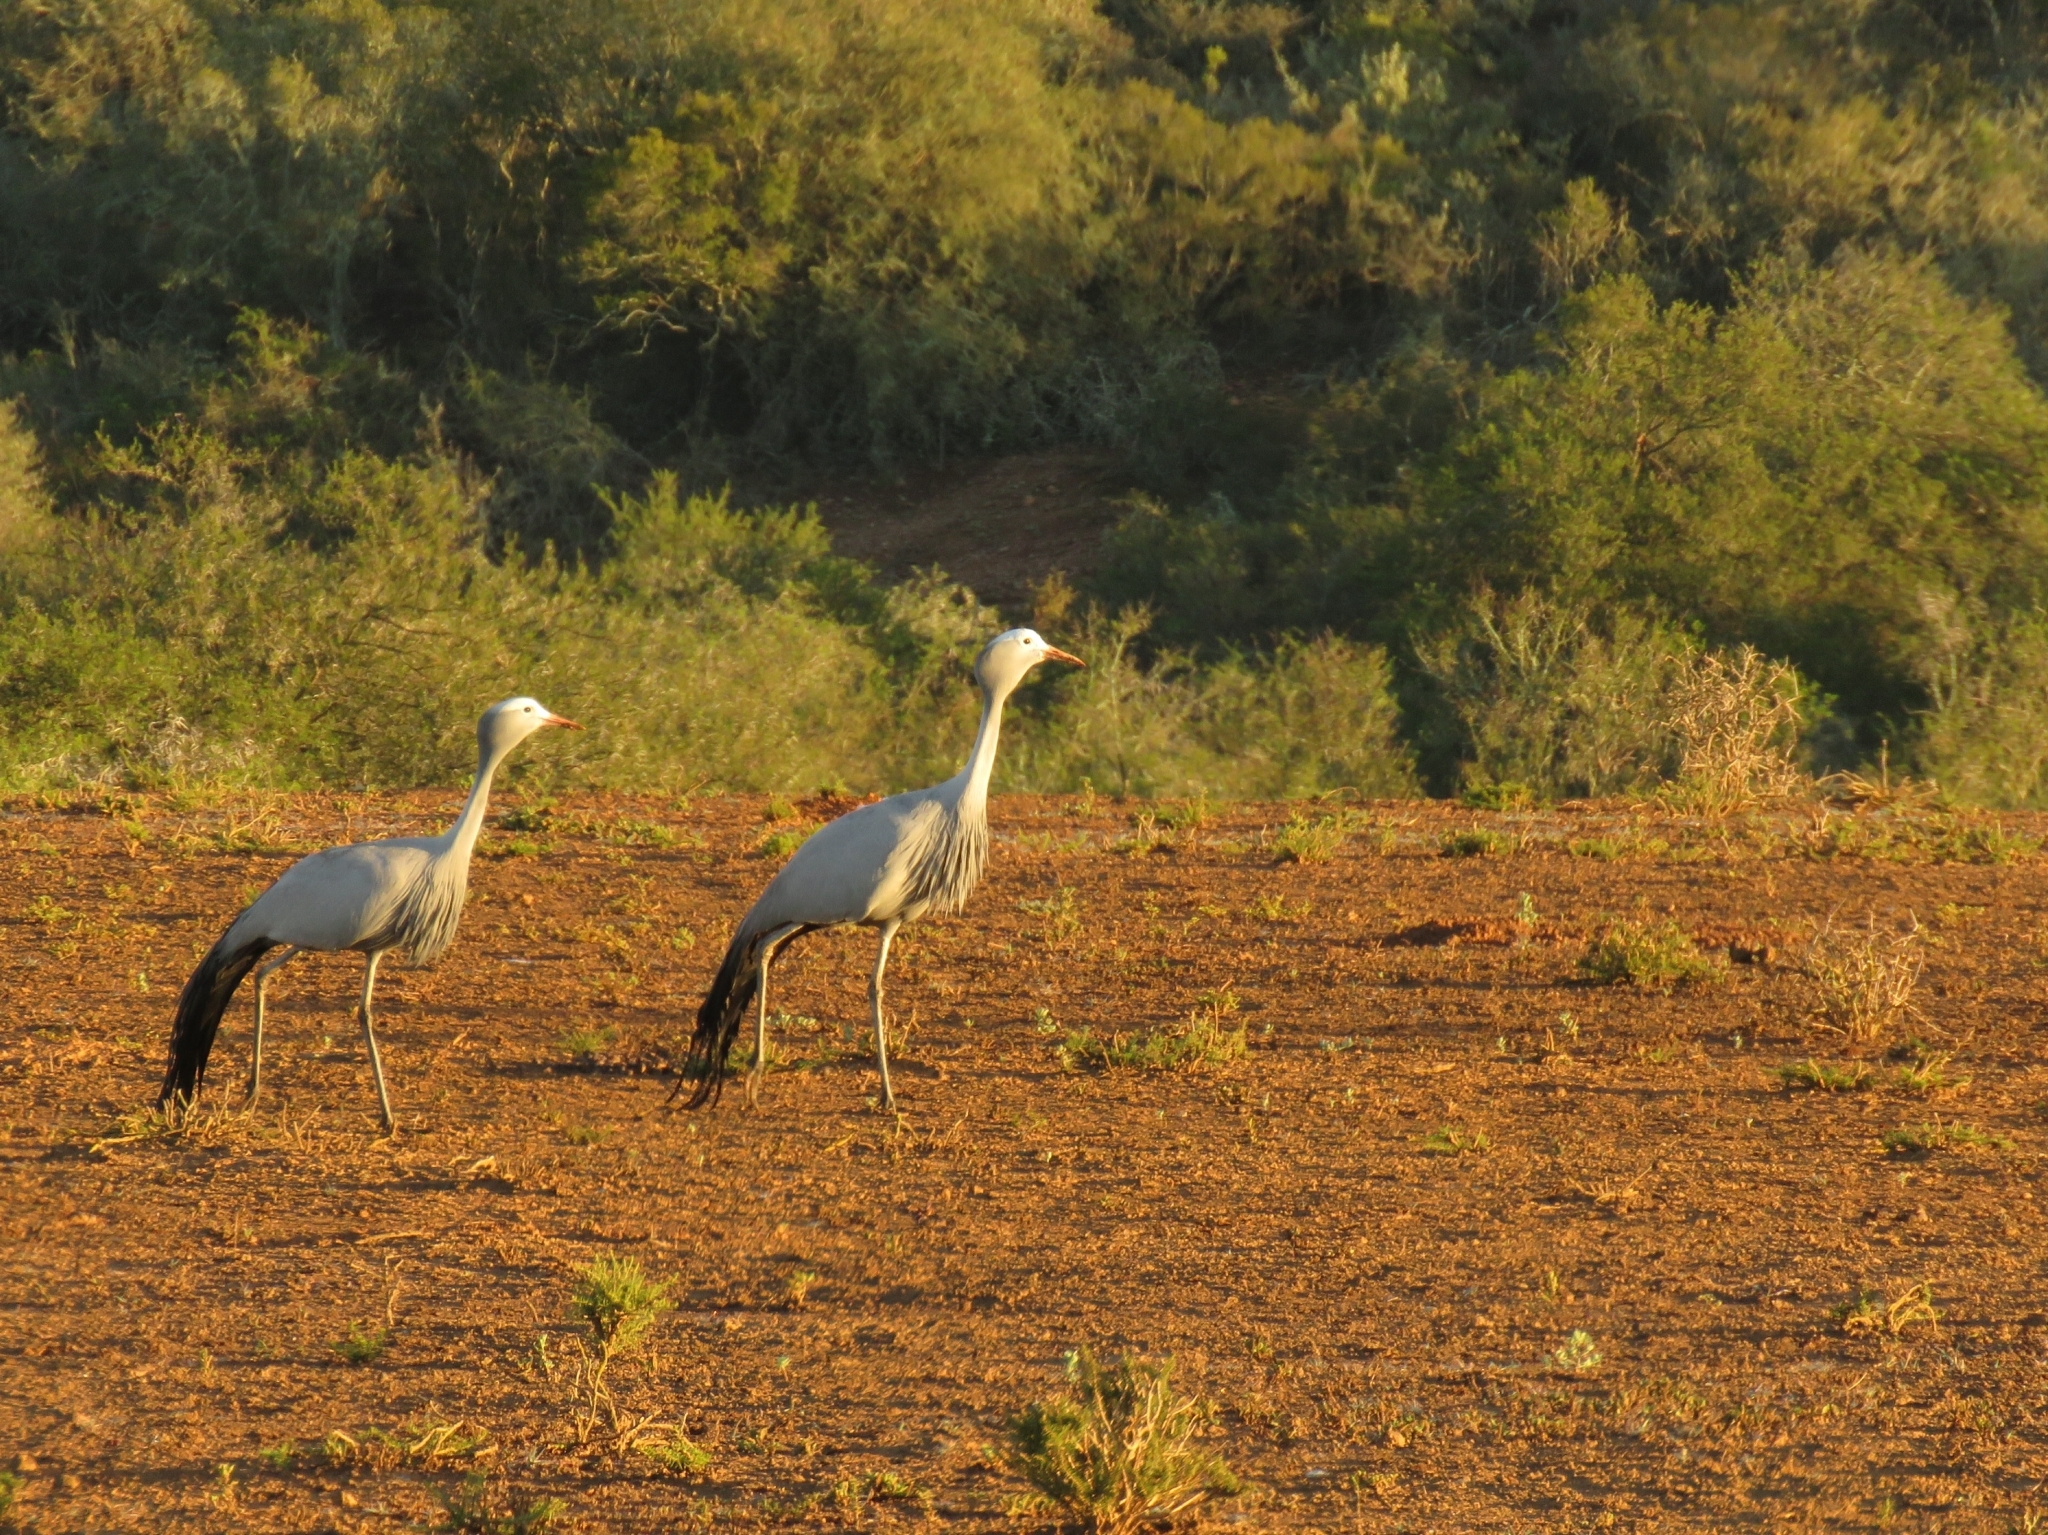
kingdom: Animalia
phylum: Chordata
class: Aves
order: Gruiformes
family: Gruidae
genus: Anthropoides
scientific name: Anthropoides paradiseus
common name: Blue crane
